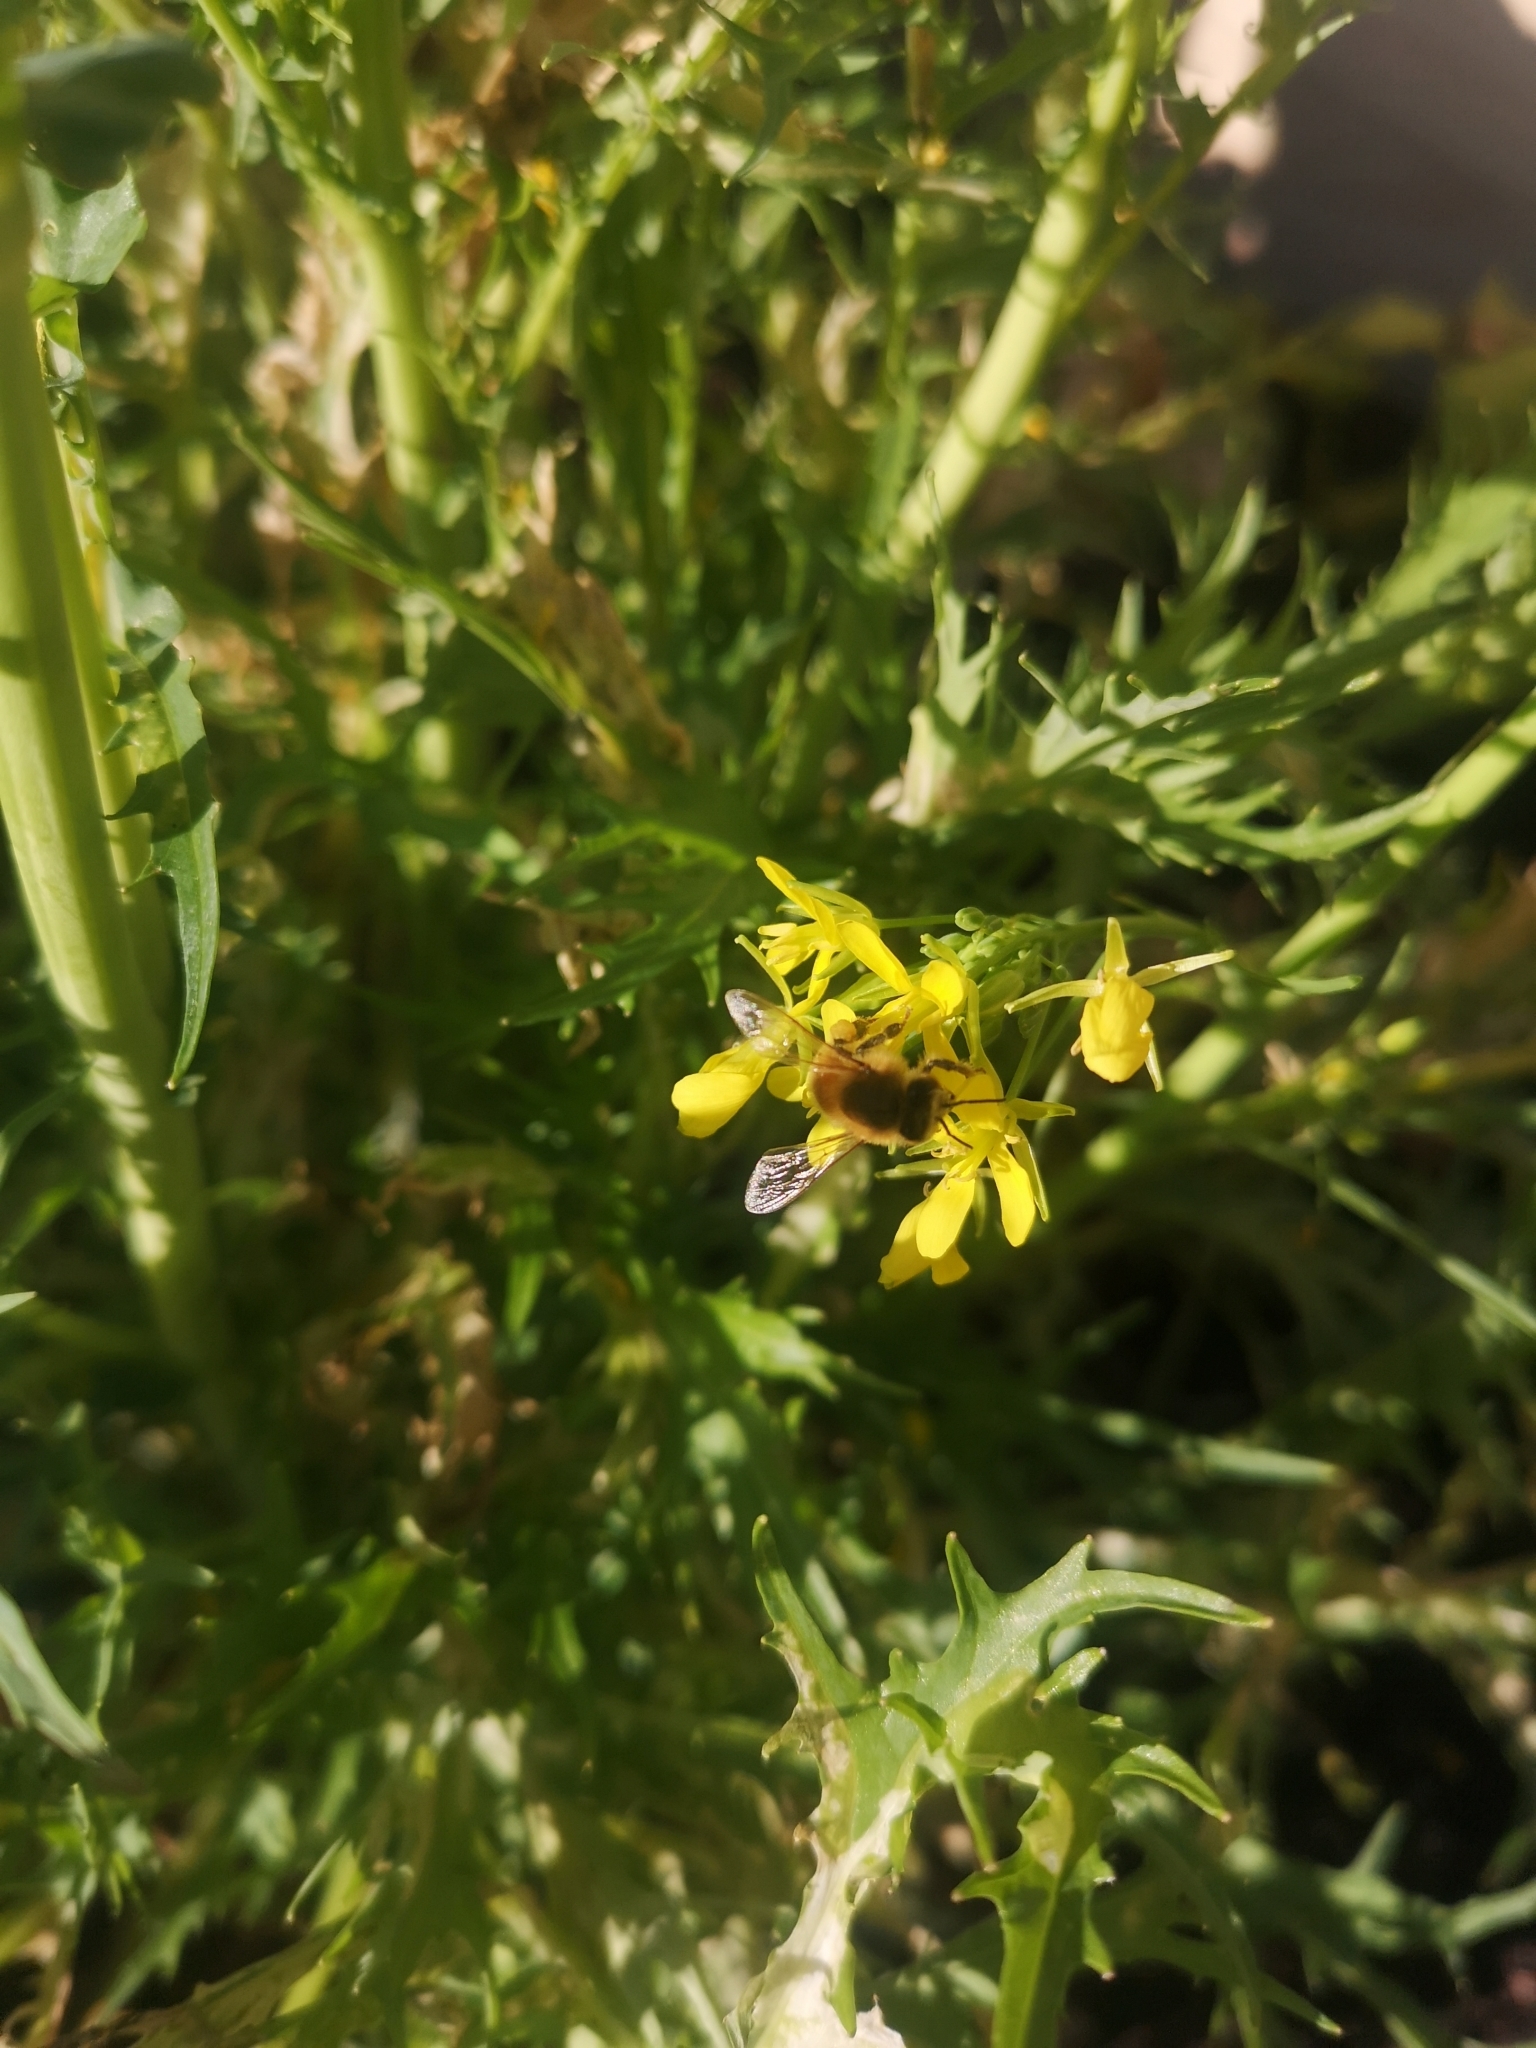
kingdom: Animalia
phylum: Arthropoda
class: Insecta
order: Hymenoptera
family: Apidae
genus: Apis
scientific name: Apis mellifera
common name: Honey bee
